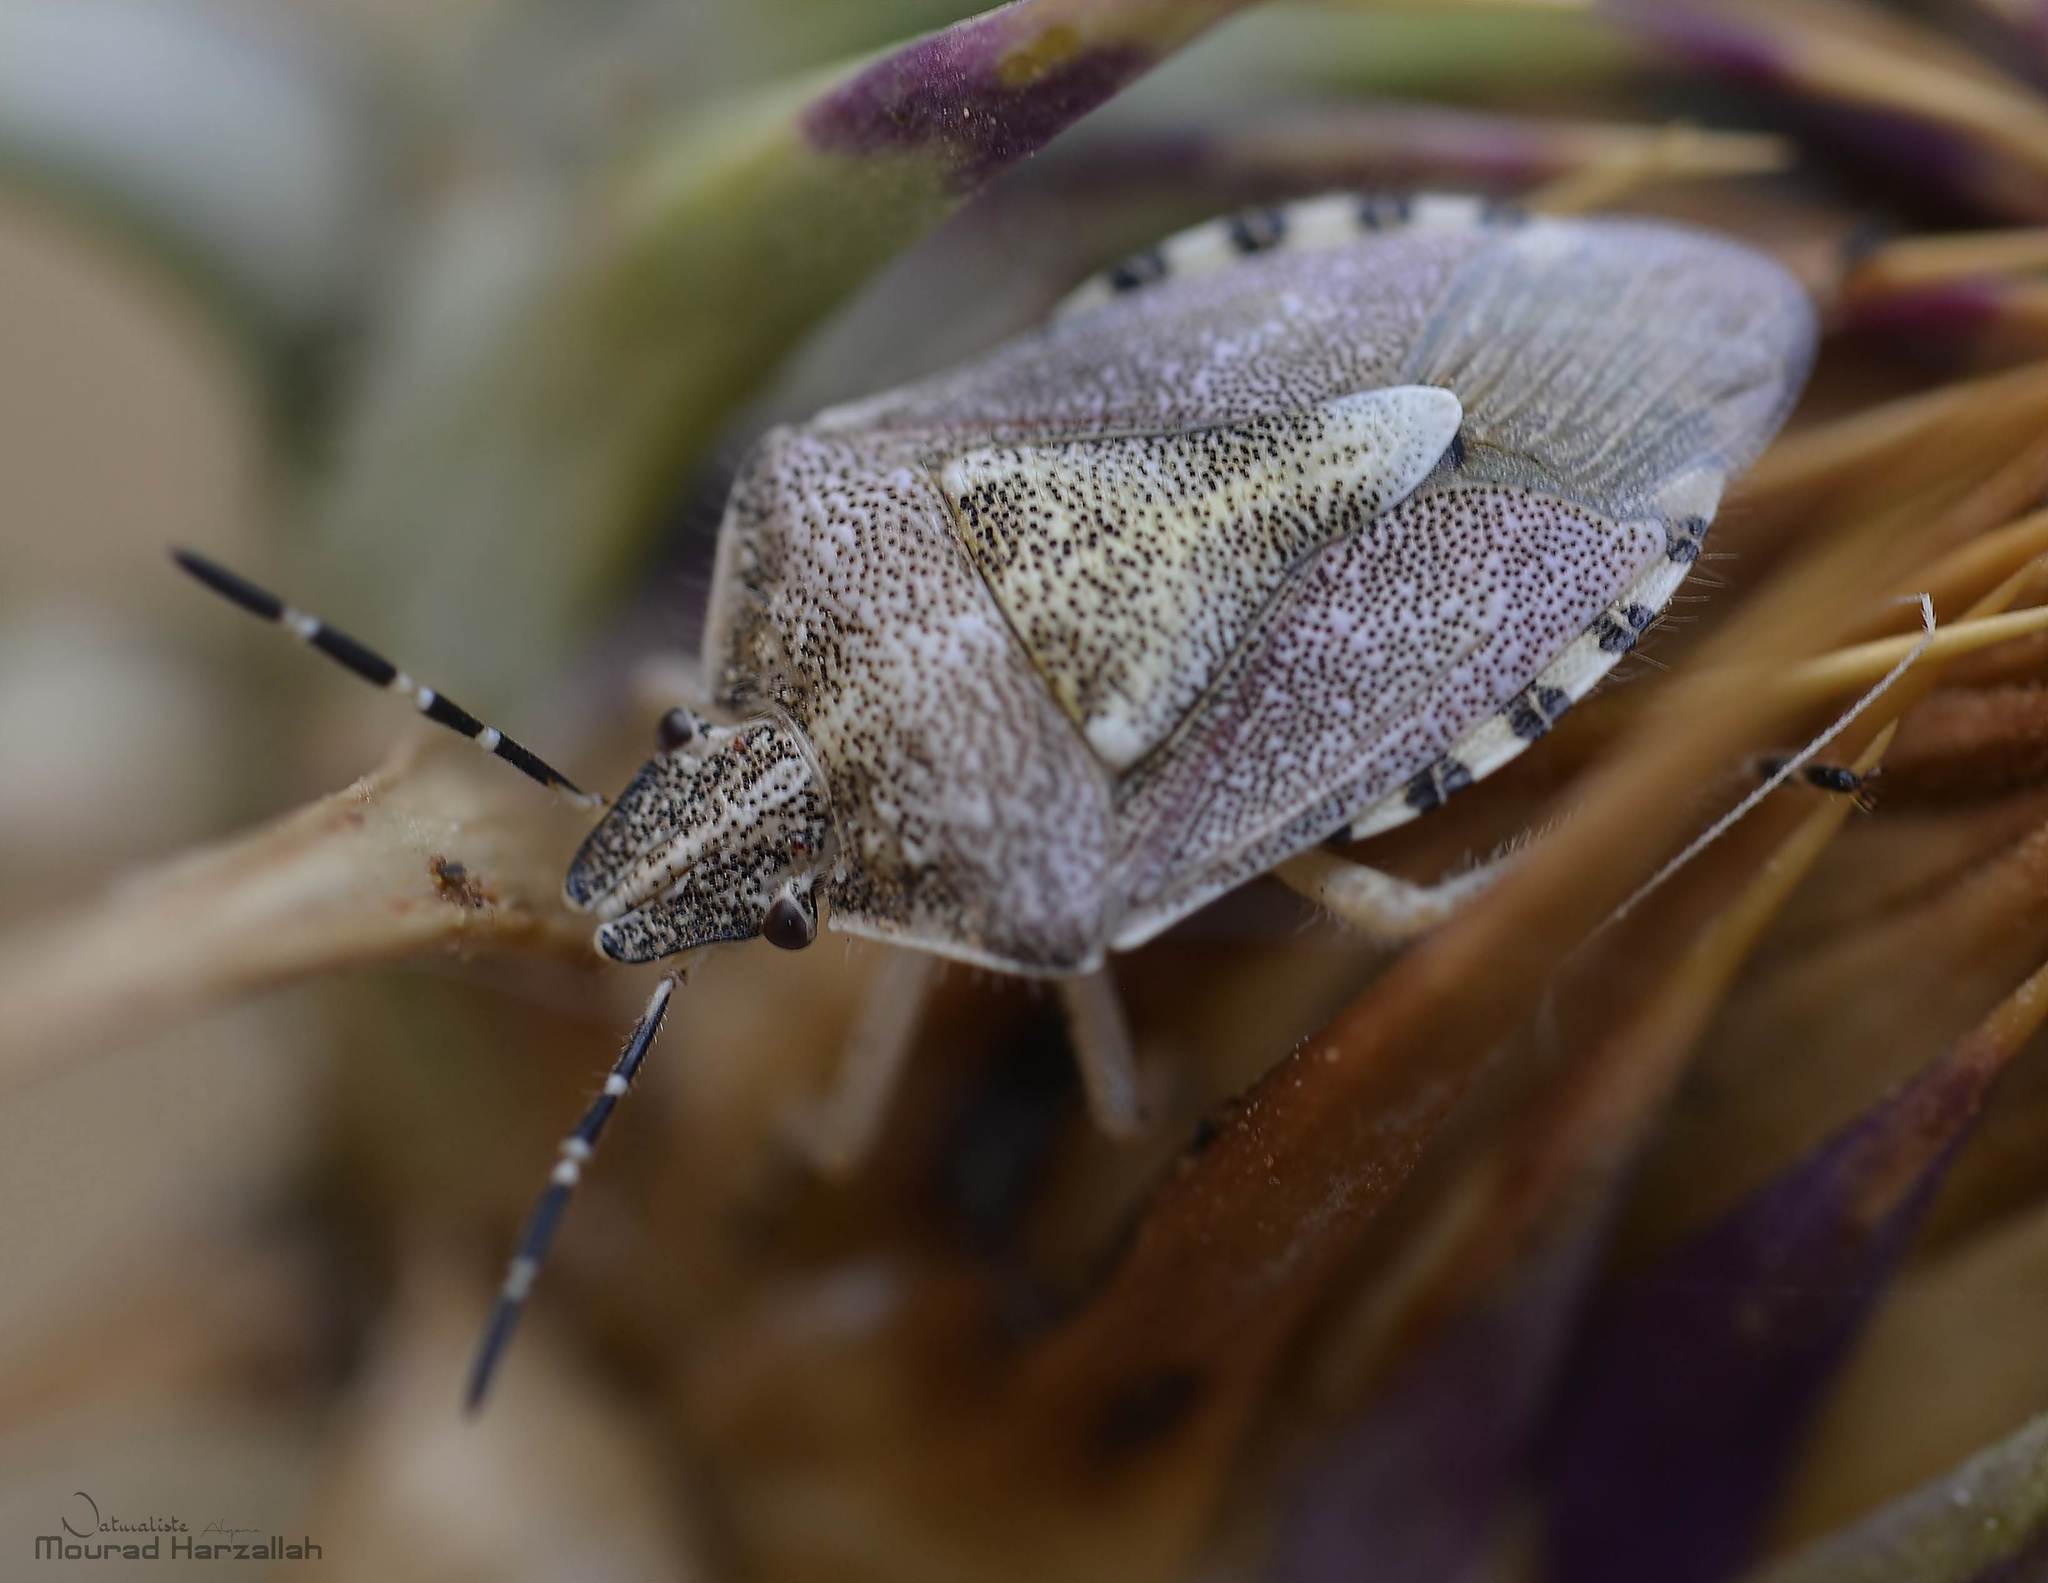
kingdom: Animalia
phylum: Arthropoda
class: Insecta
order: Hemiptera
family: Pentatomidae
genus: Dolycoris
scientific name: Dolycoris numidicus
